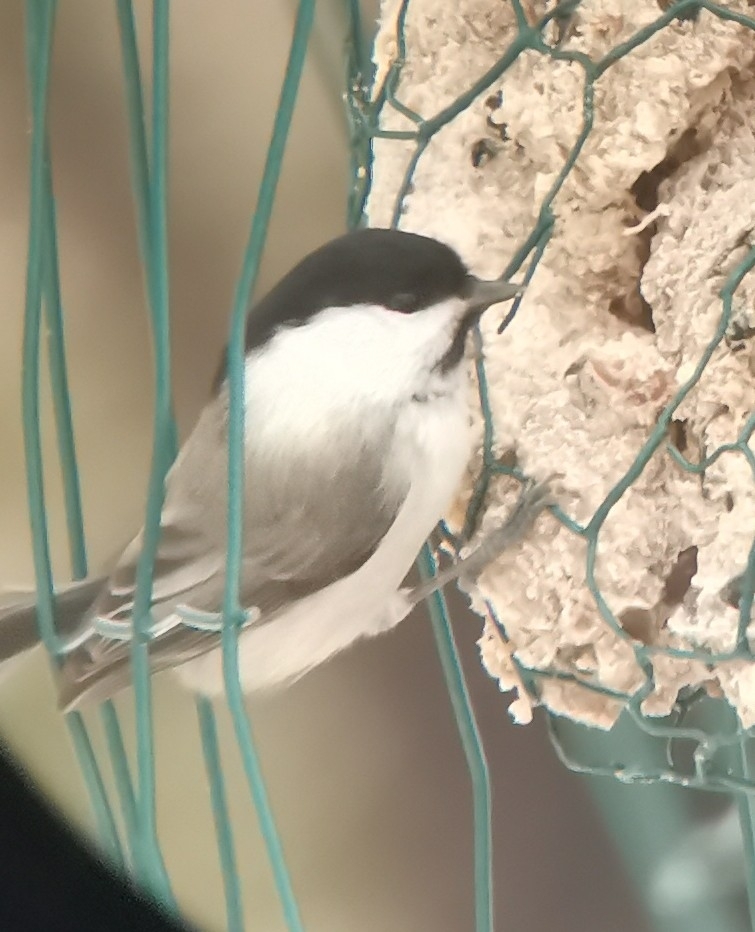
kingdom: Animalia
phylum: Chordata
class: Aves
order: Passeriformes
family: Paridae
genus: Poecile
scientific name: Poecile montanus
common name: Willow tit
